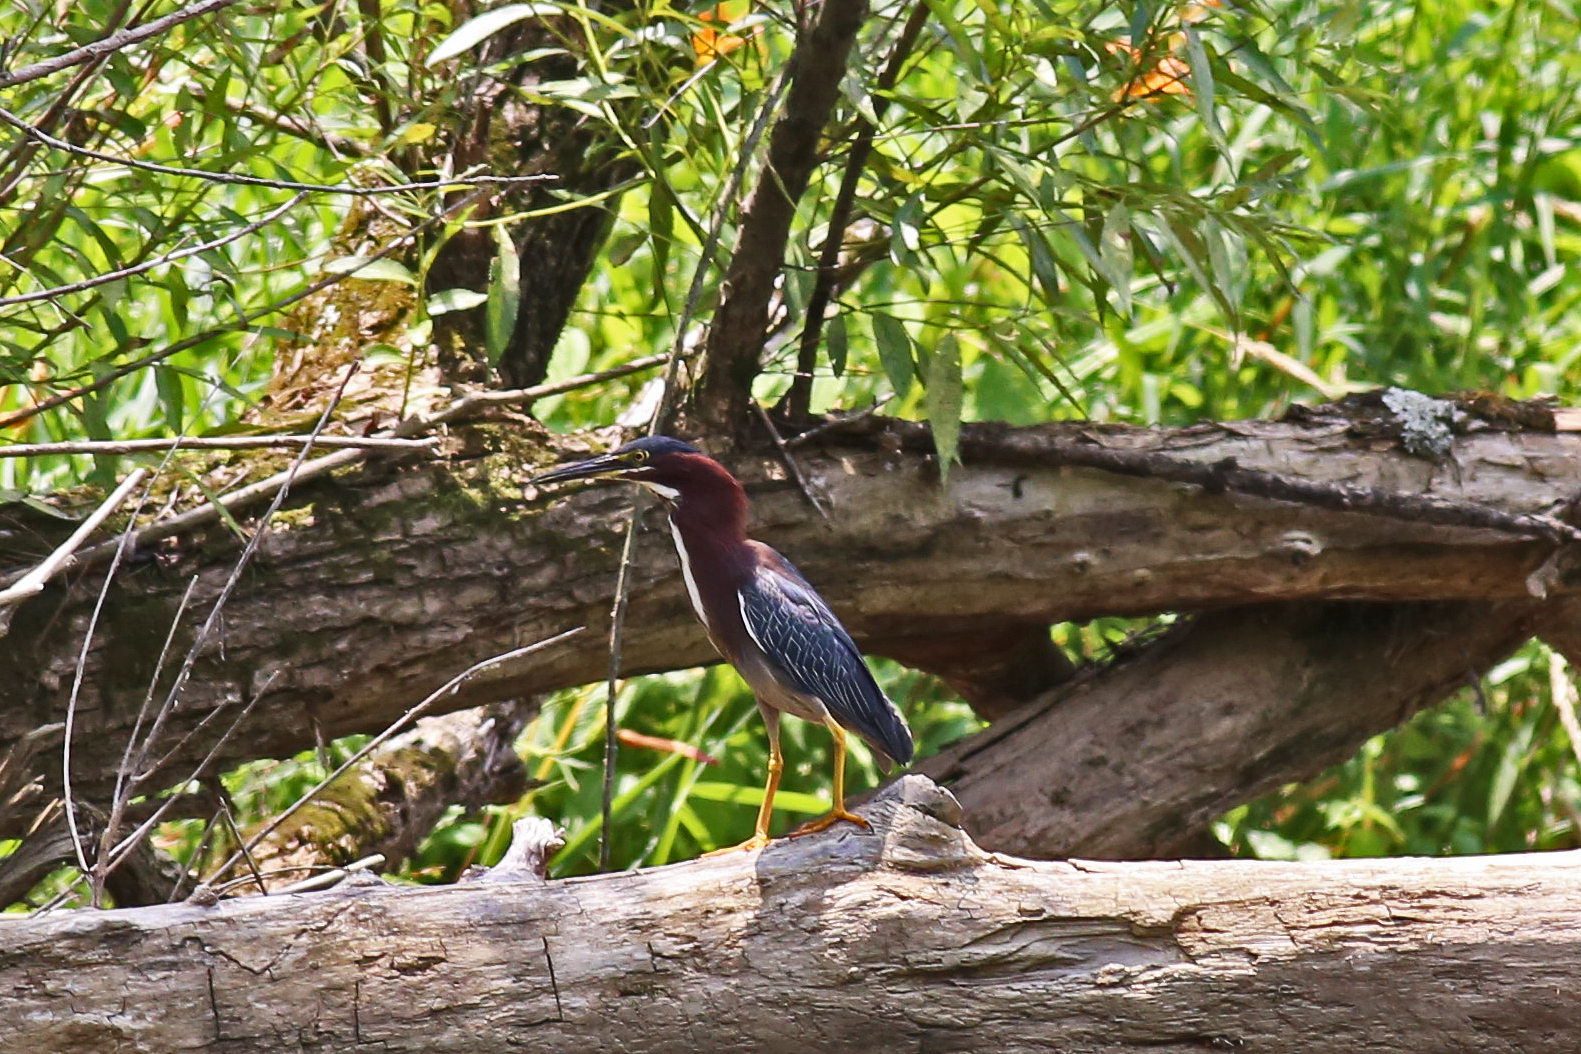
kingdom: Animalia
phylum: Chordata
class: Aves
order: Pelecaniformes
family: Ardeidae
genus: Butorides
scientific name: Butorides virescens
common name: Green heron
